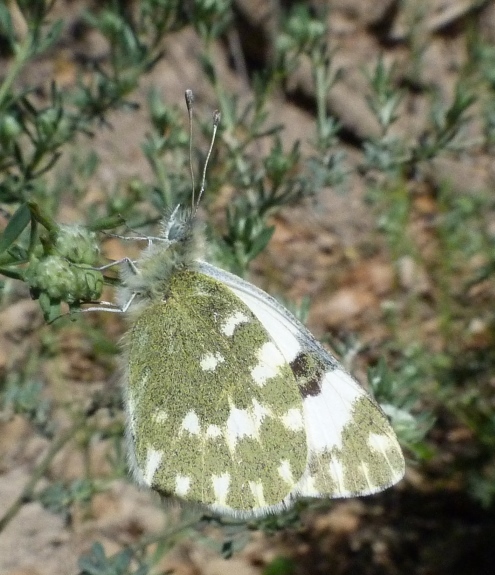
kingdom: Animalia
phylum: Arthropoda
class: Insecta
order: Lepidoptera
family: Pieridae
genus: Pontia
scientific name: Pontia daplidice
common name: Bath white
